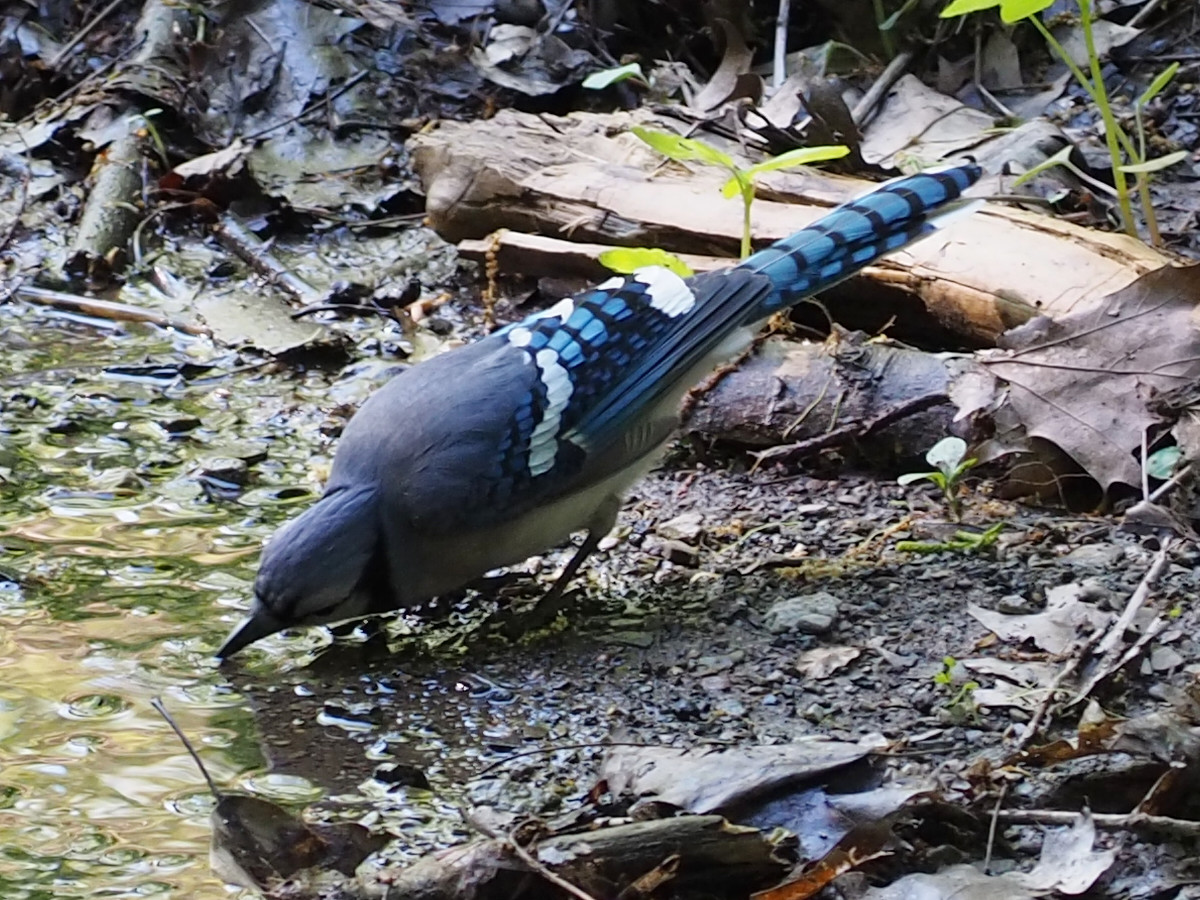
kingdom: Animalia
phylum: Chordata
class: Aves
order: Passeriformes
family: Corvidae
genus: Cyanocitta
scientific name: Cyanocitta cristata
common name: Blue jay
